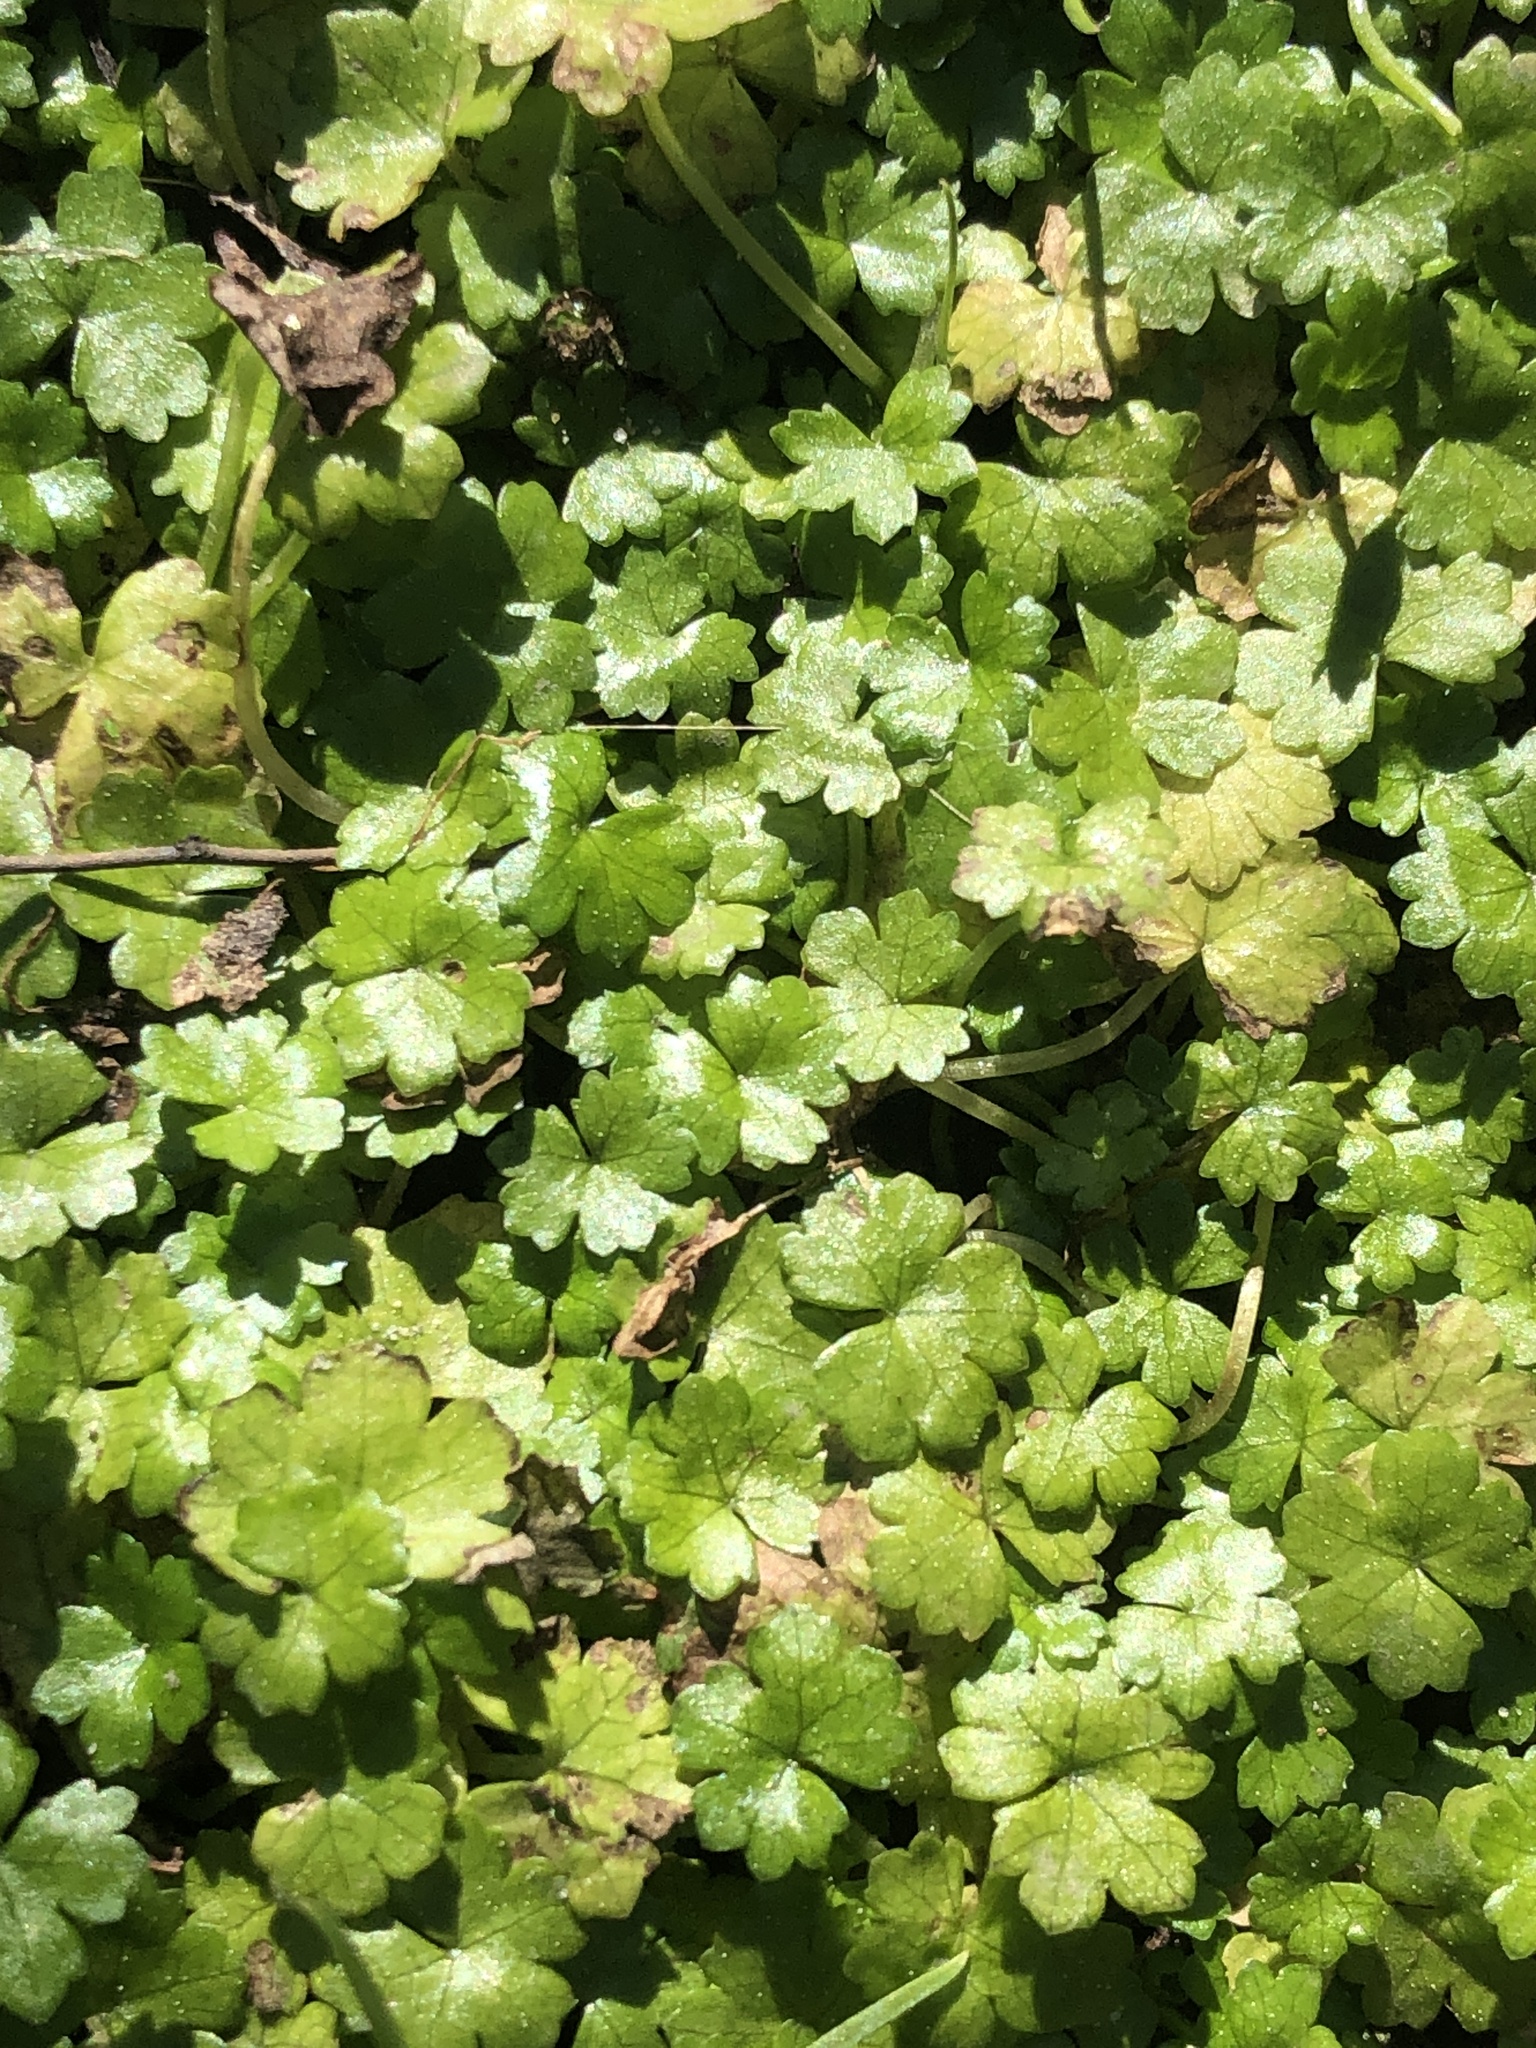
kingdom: Plantae
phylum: Tracheophyta
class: Magnoliopsida
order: Apiales
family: Araliaceae
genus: Hydrocotyle
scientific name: Hydrocotyle heteromeria
